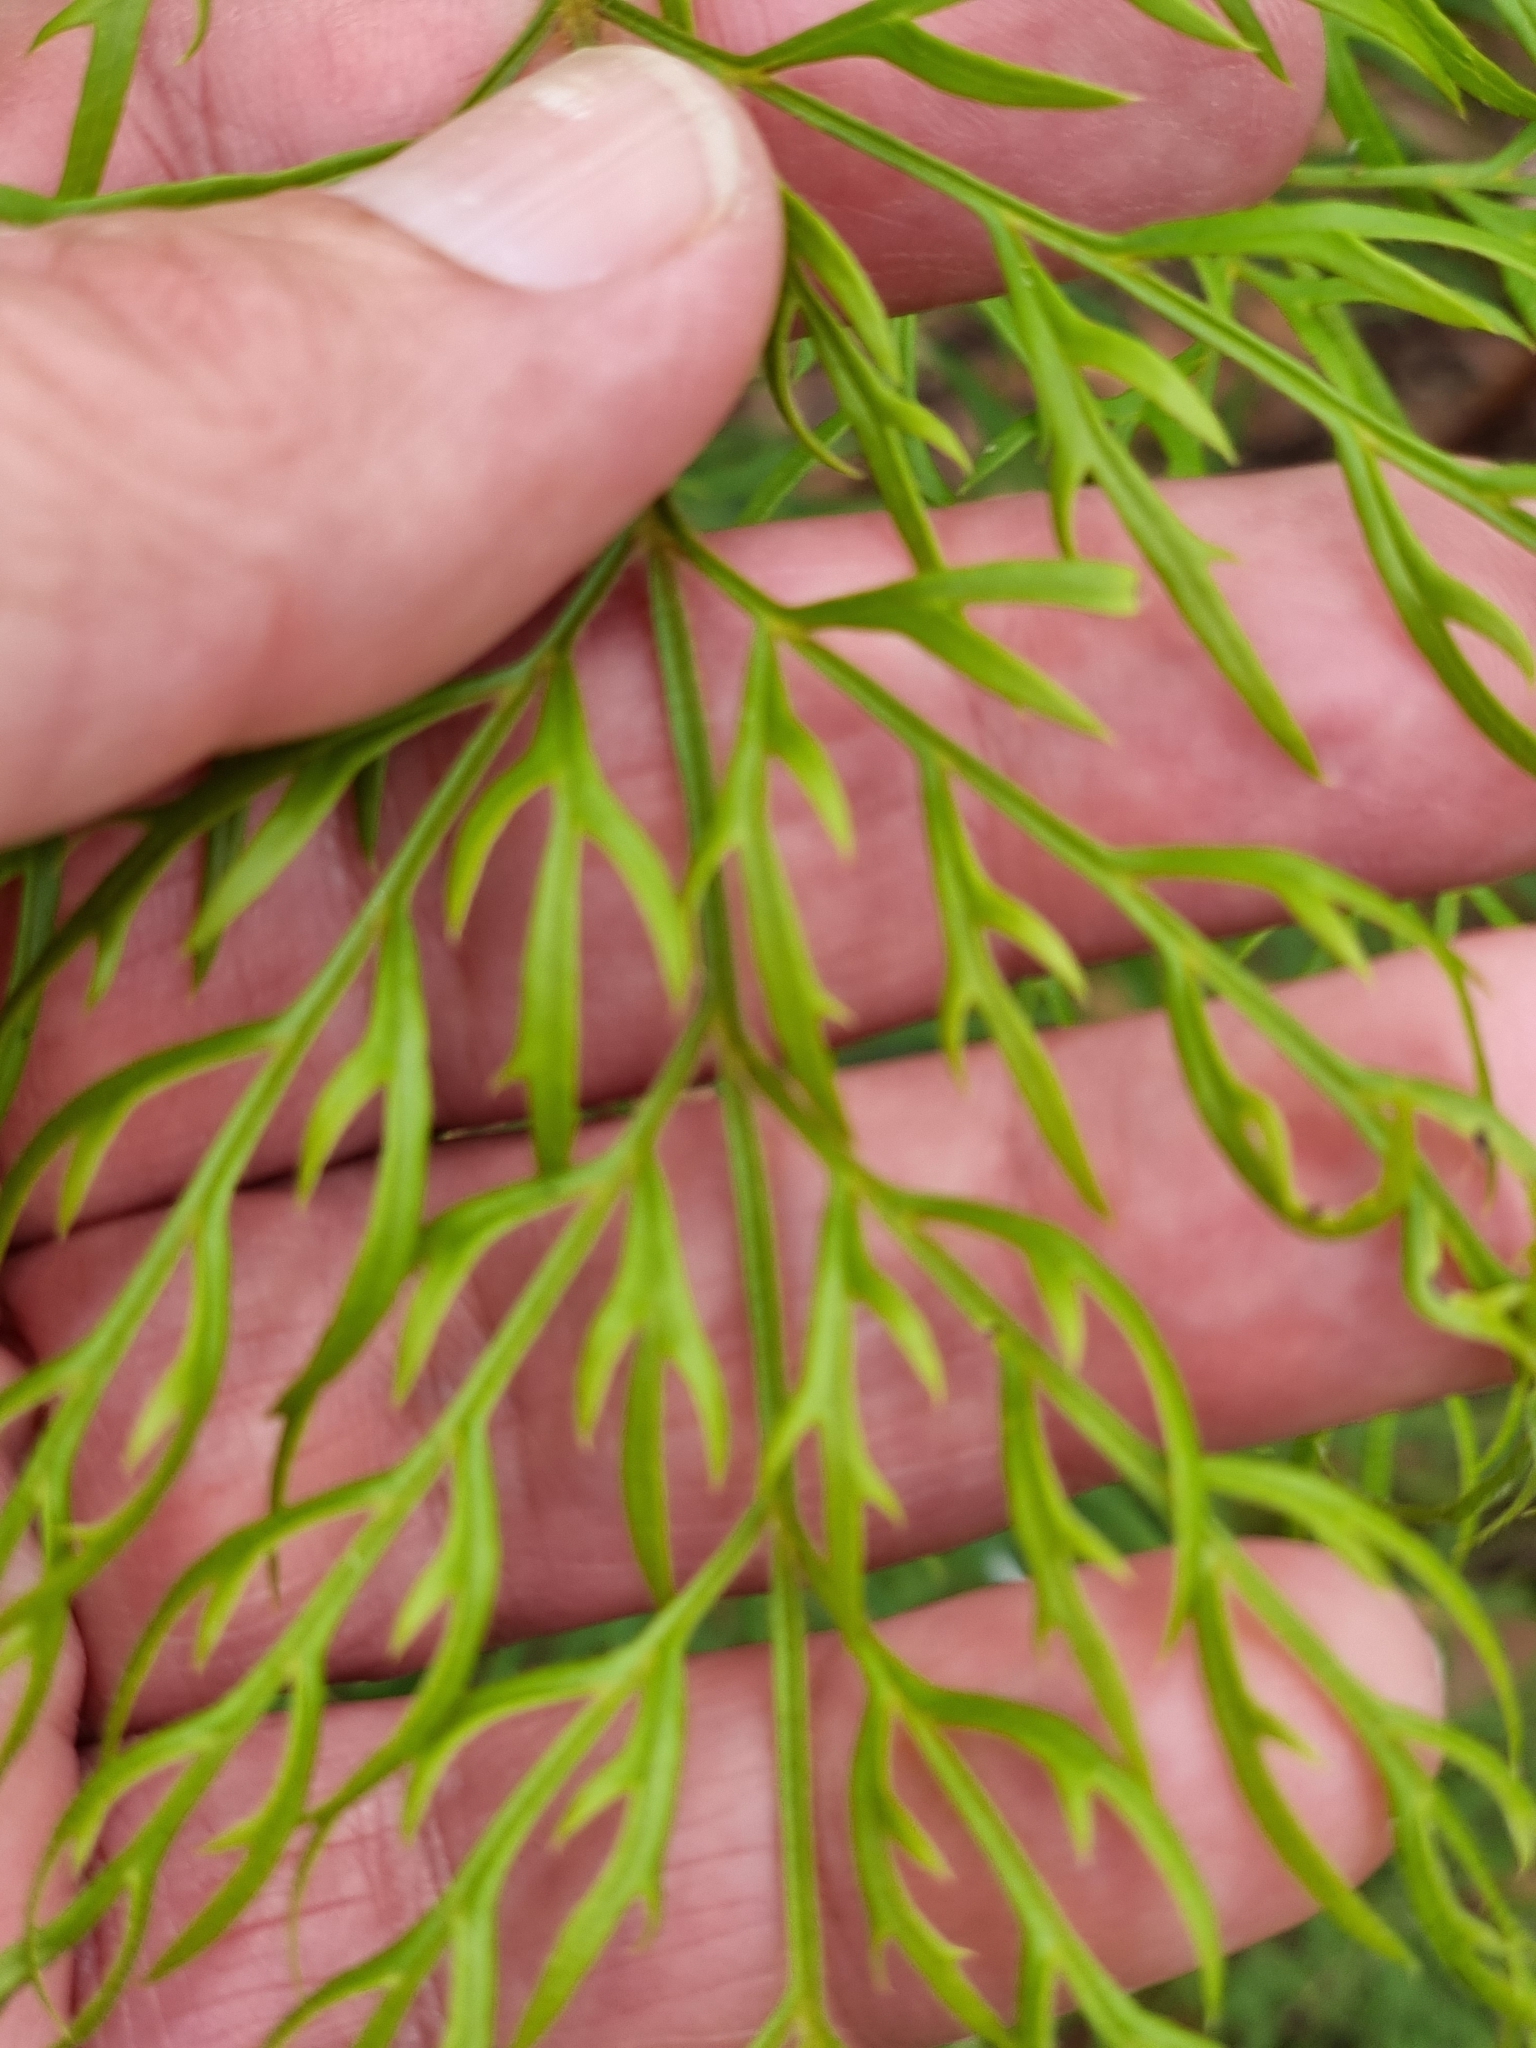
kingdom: Plantae
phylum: Tracheophyta
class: Magnoliopsida
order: Proteales
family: Proteaceae
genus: Lomatia
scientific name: Lomatia silaifolia
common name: Crinklebush
